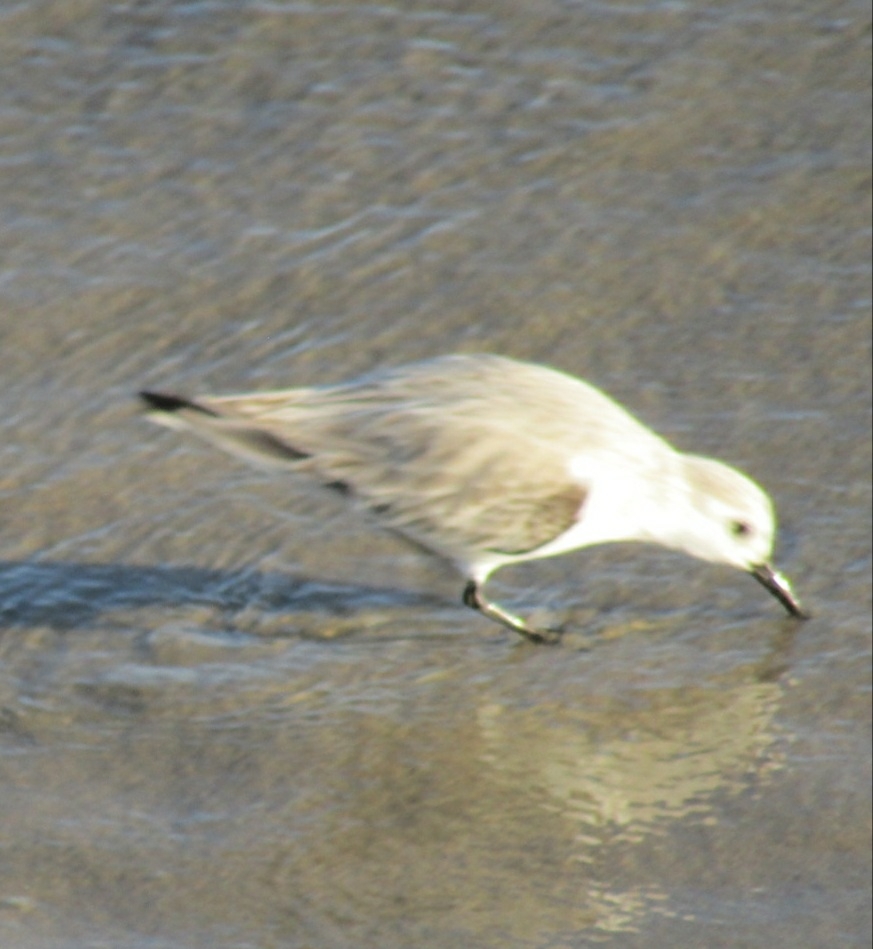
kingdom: Animalia
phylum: Chordata
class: Aves
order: Charadriiformes
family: Scolopacidae
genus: Calidris
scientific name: Calidris alba
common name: Sanderling
